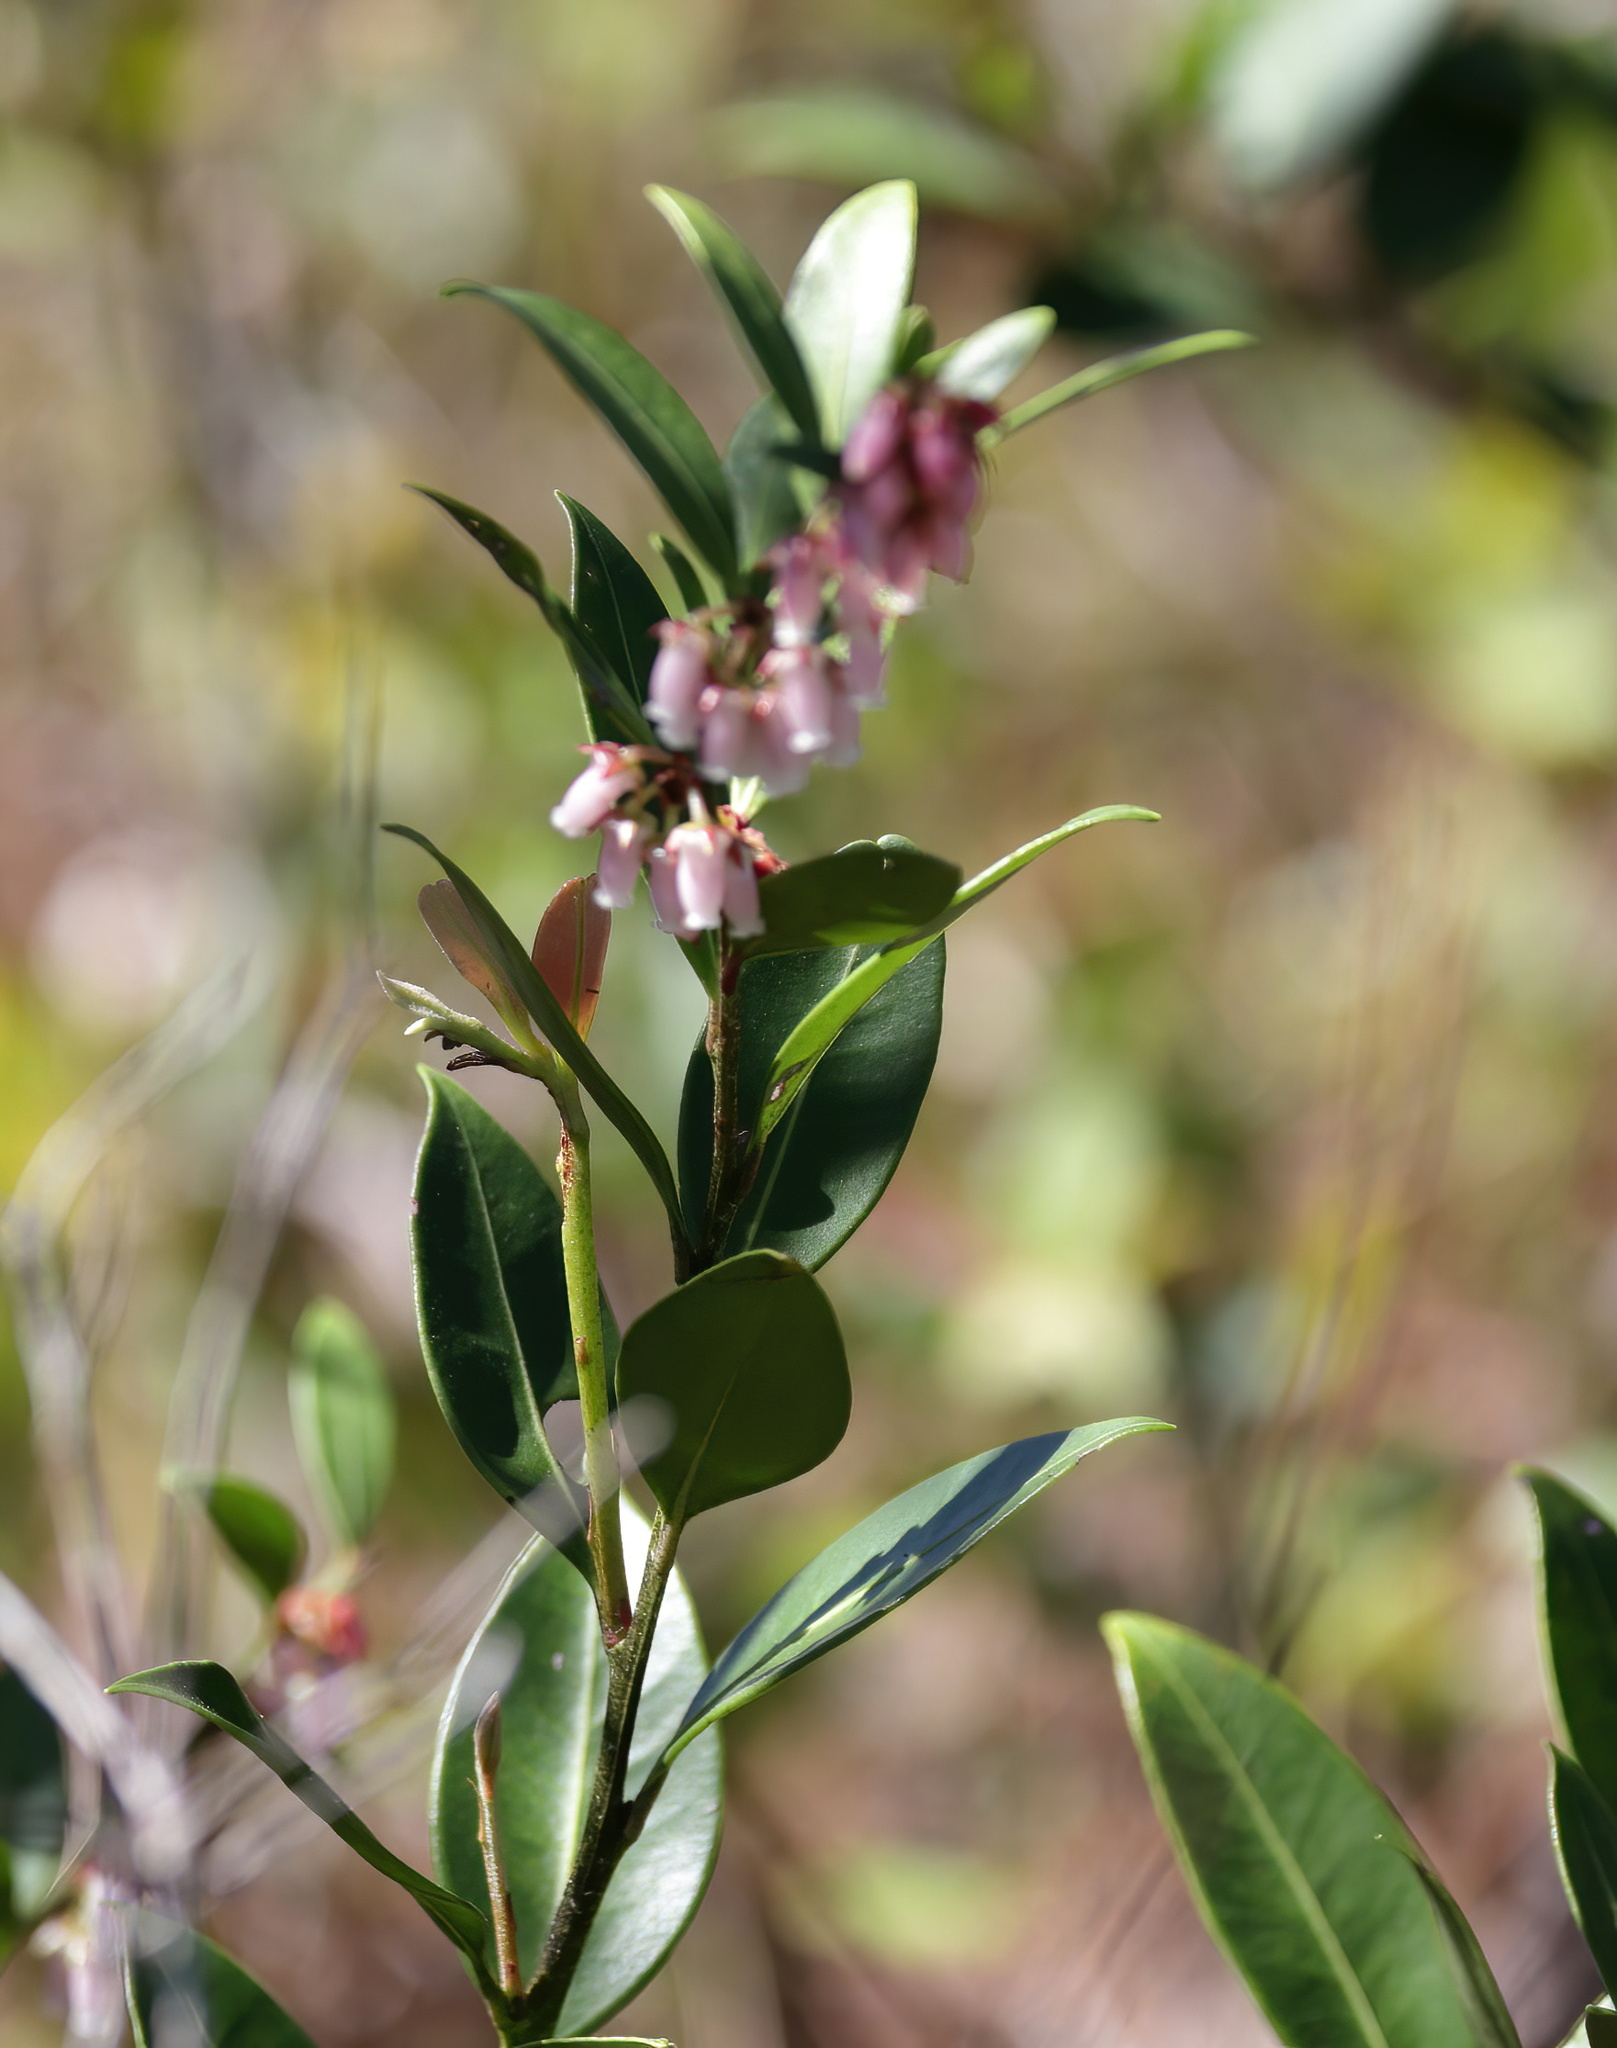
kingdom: Plantae
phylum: Tracheophyta
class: Magnoliopsida
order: Ericales
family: Ericaceae
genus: Lyonia
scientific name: Lyonia lucida
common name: Fetterbush
